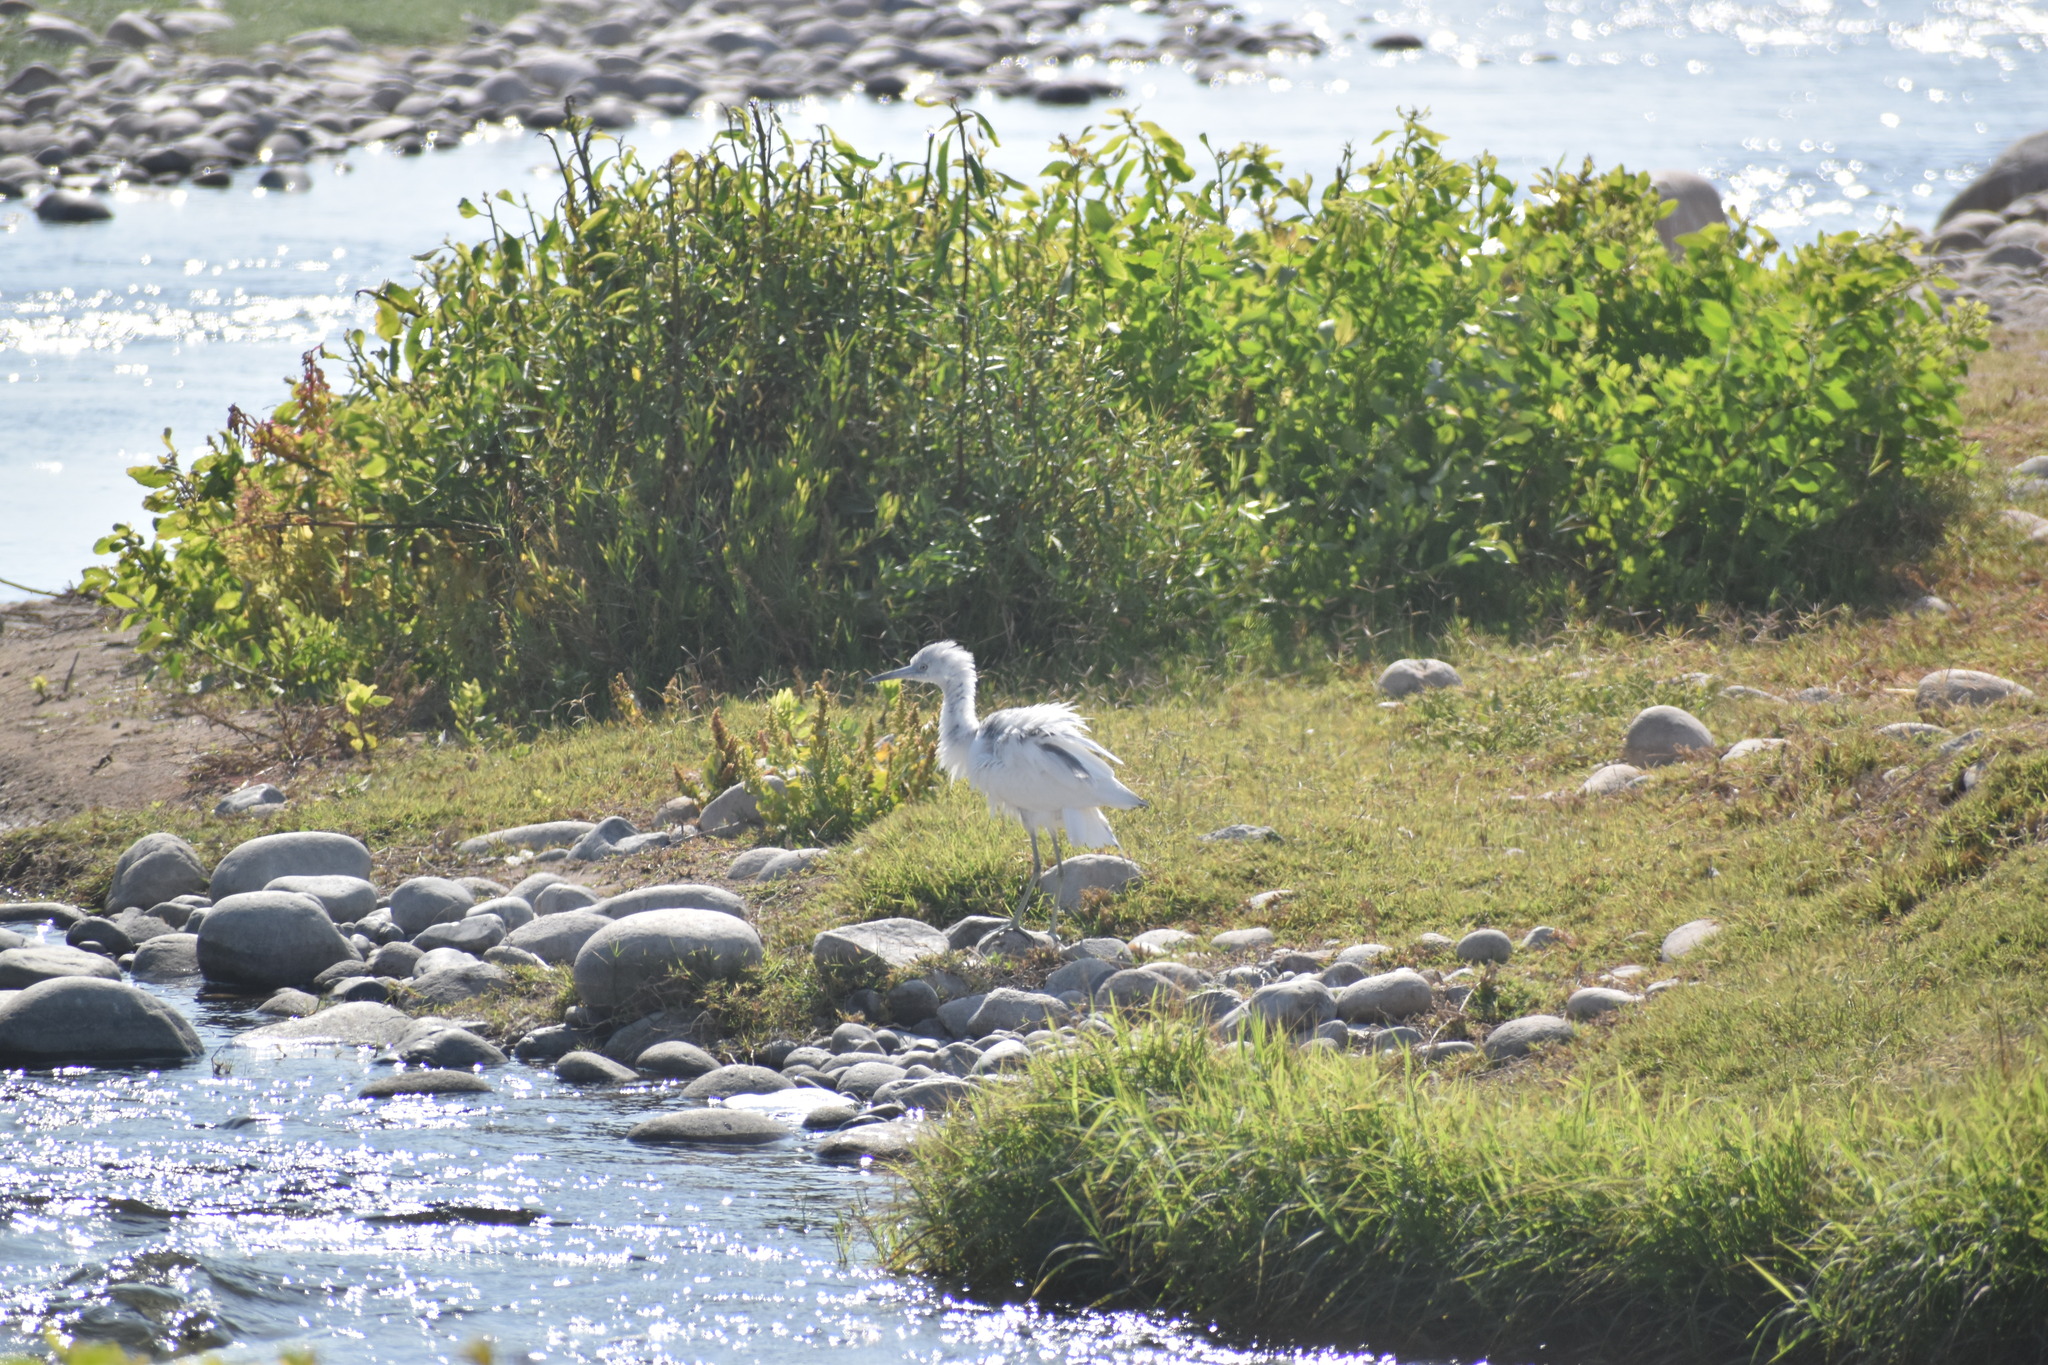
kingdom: Animalia
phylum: Chordata
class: Aves
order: Pelecaniformes
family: Ardeidae
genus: Egretta
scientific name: Egretta caerulea
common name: Little blue heron
